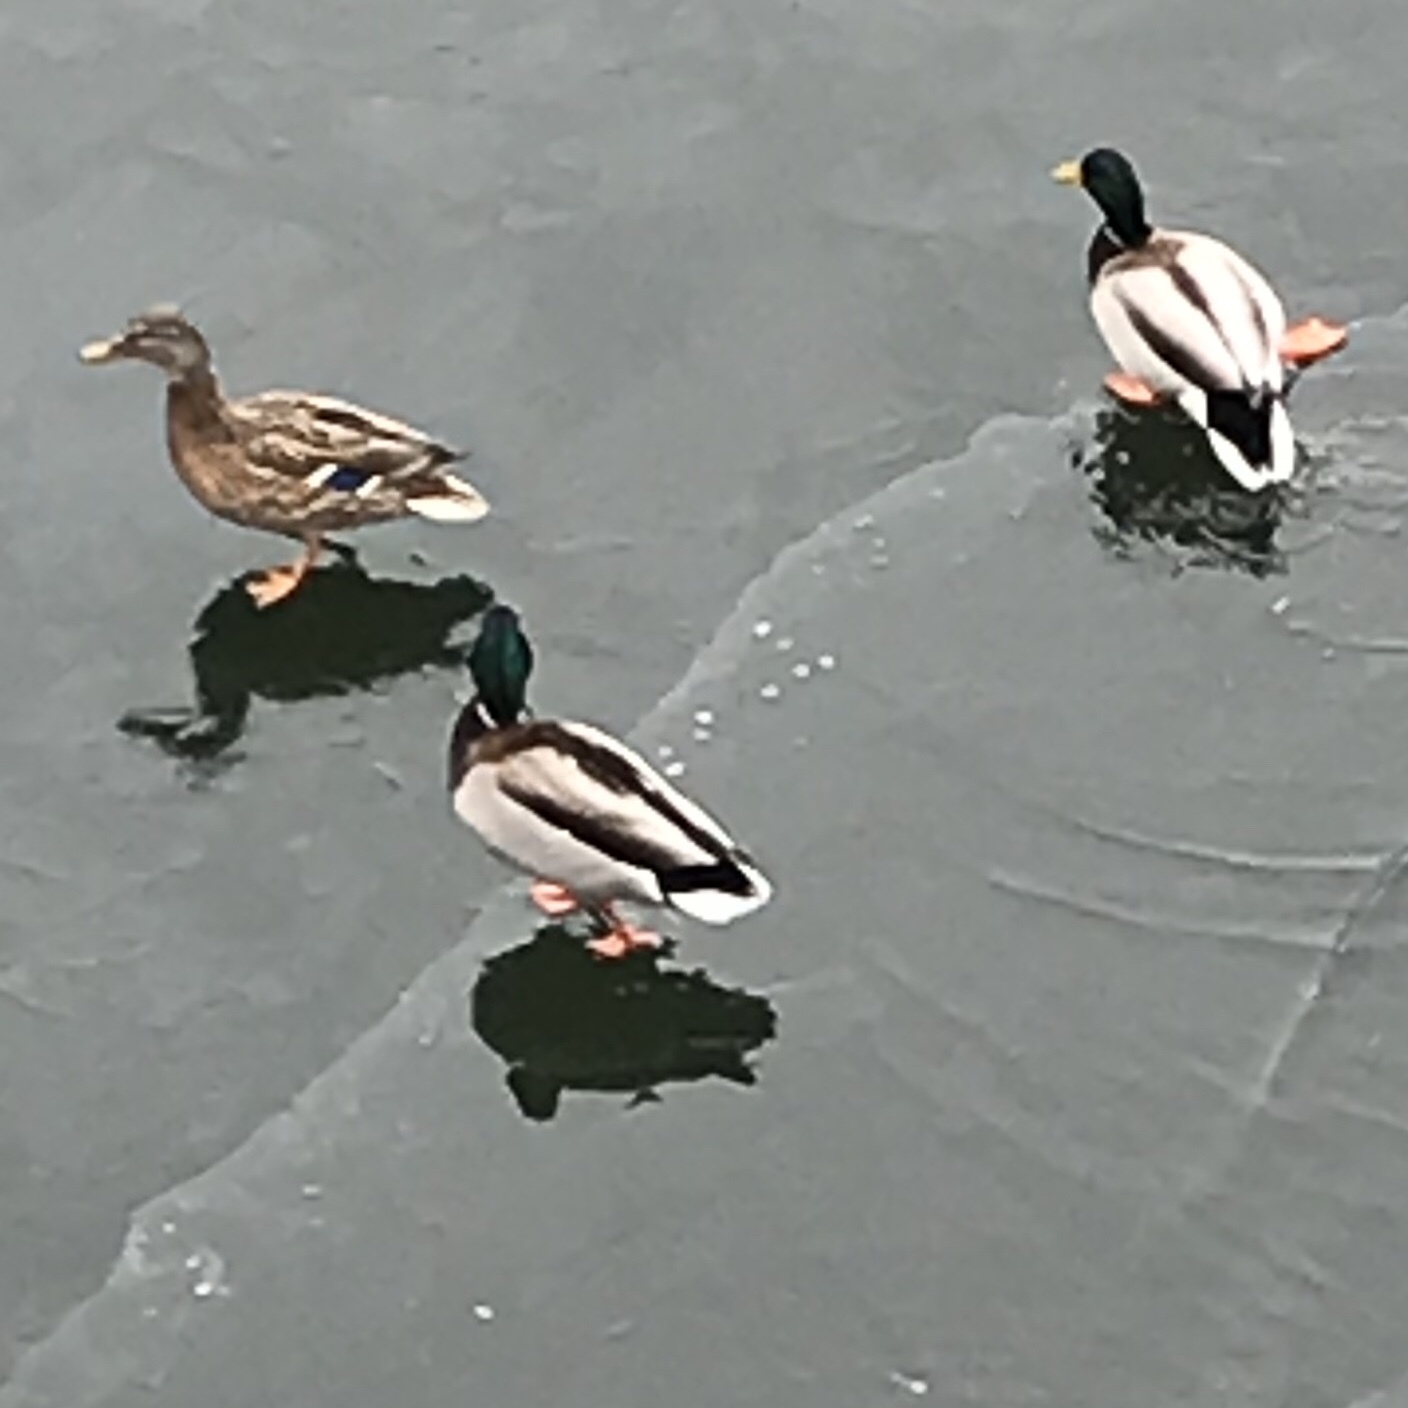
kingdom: Animalia
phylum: Chordata
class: Aves
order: Anseriformes
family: Anatidae
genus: Anas
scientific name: Anas platyrhynchos
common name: Mallard
